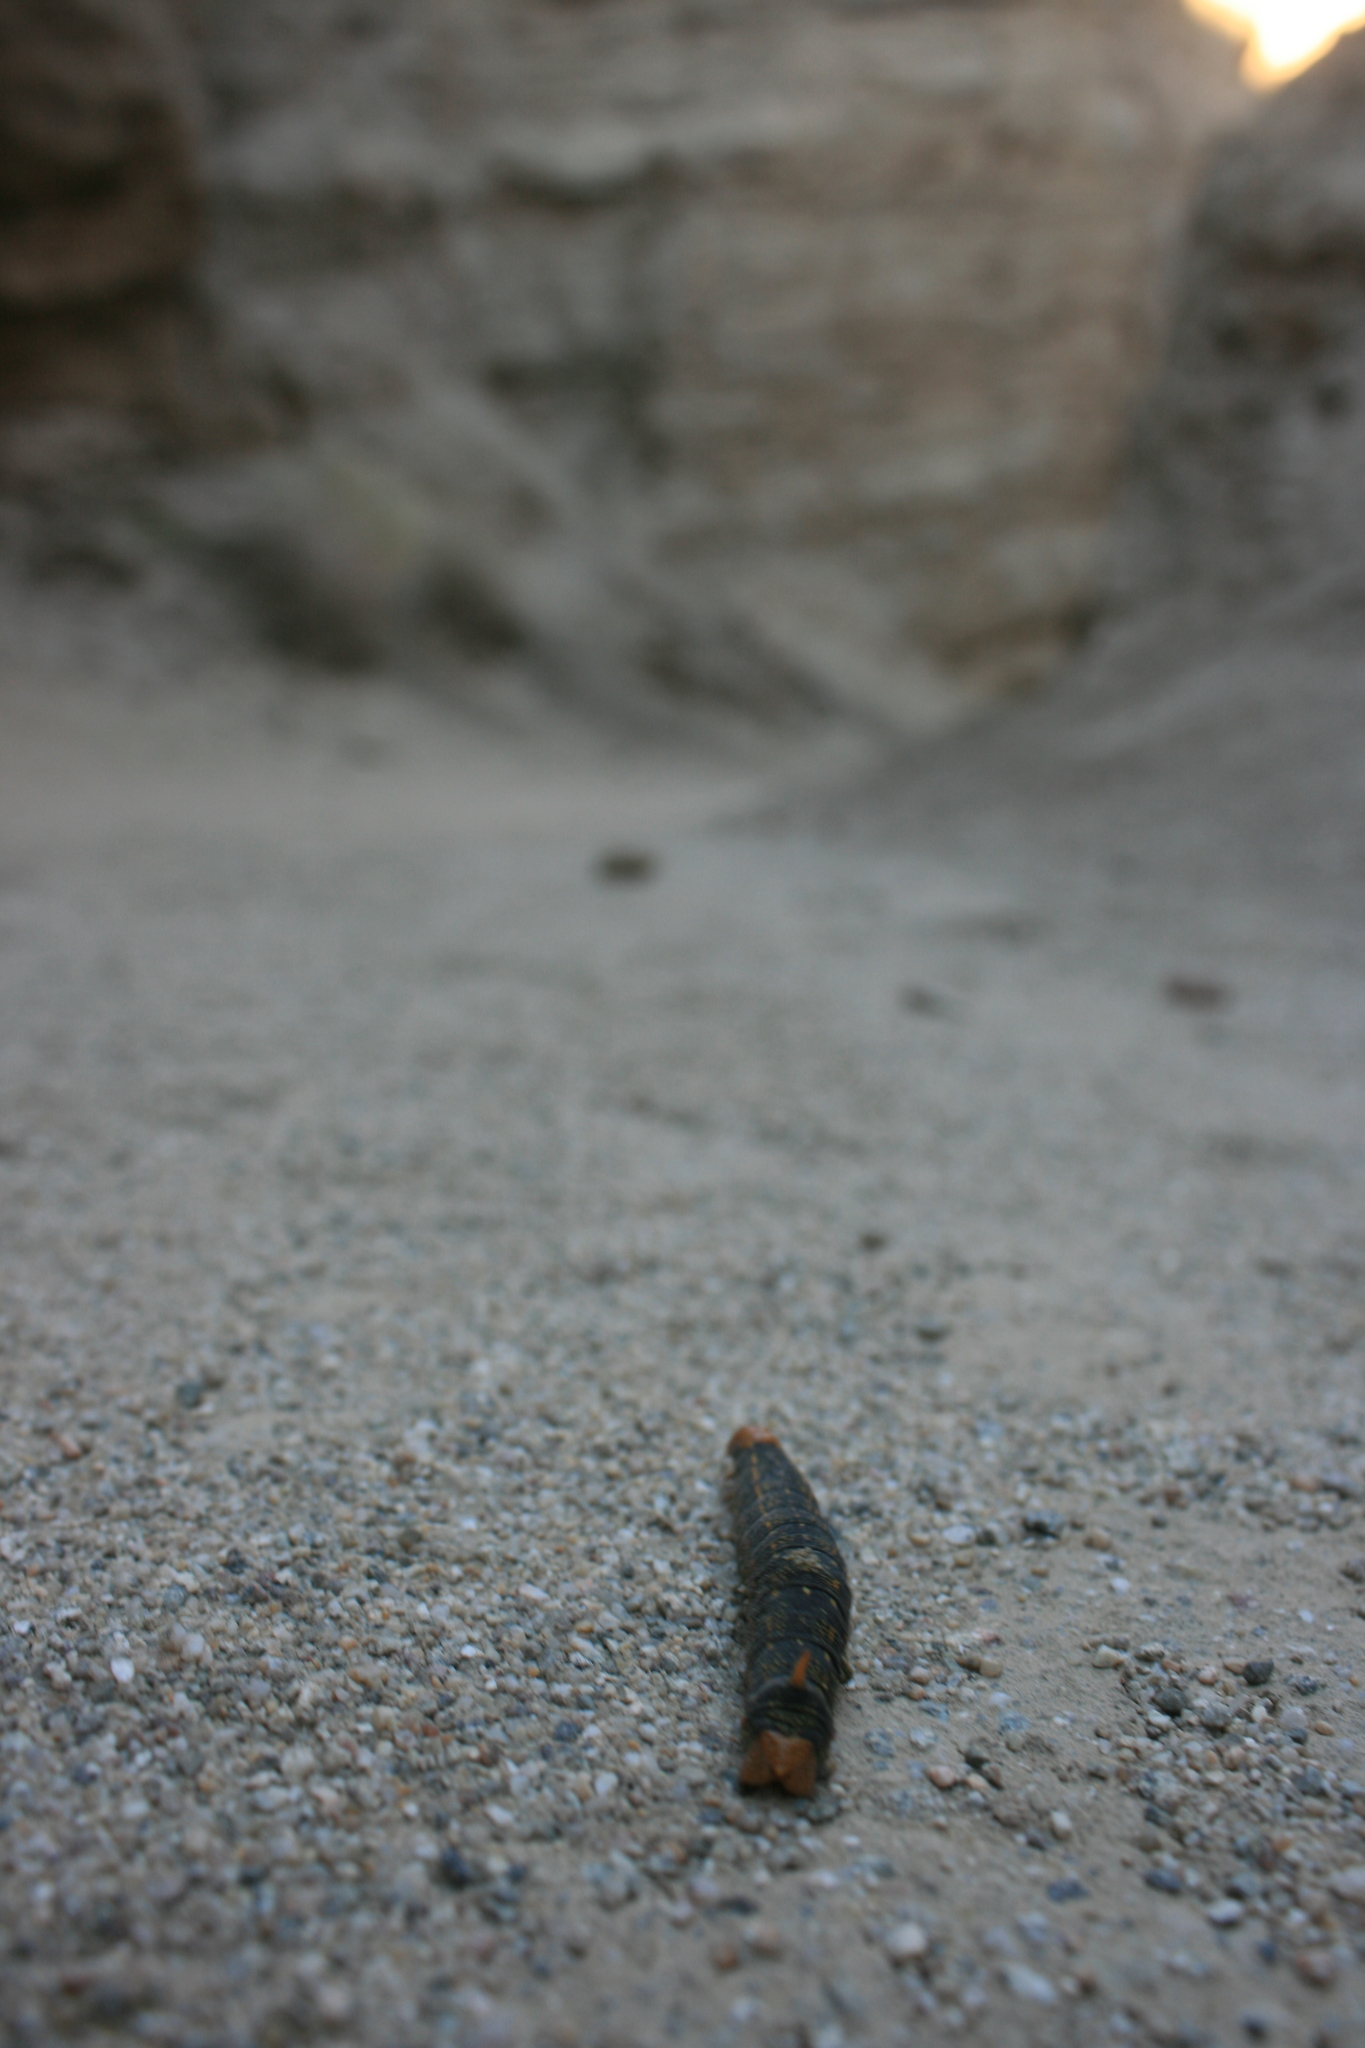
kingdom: Animalia
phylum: Arthropoda
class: Insecta
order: Lepidoptera
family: Sphingidae
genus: Hyles
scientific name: Hyles lineata
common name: White-lined sphinx
